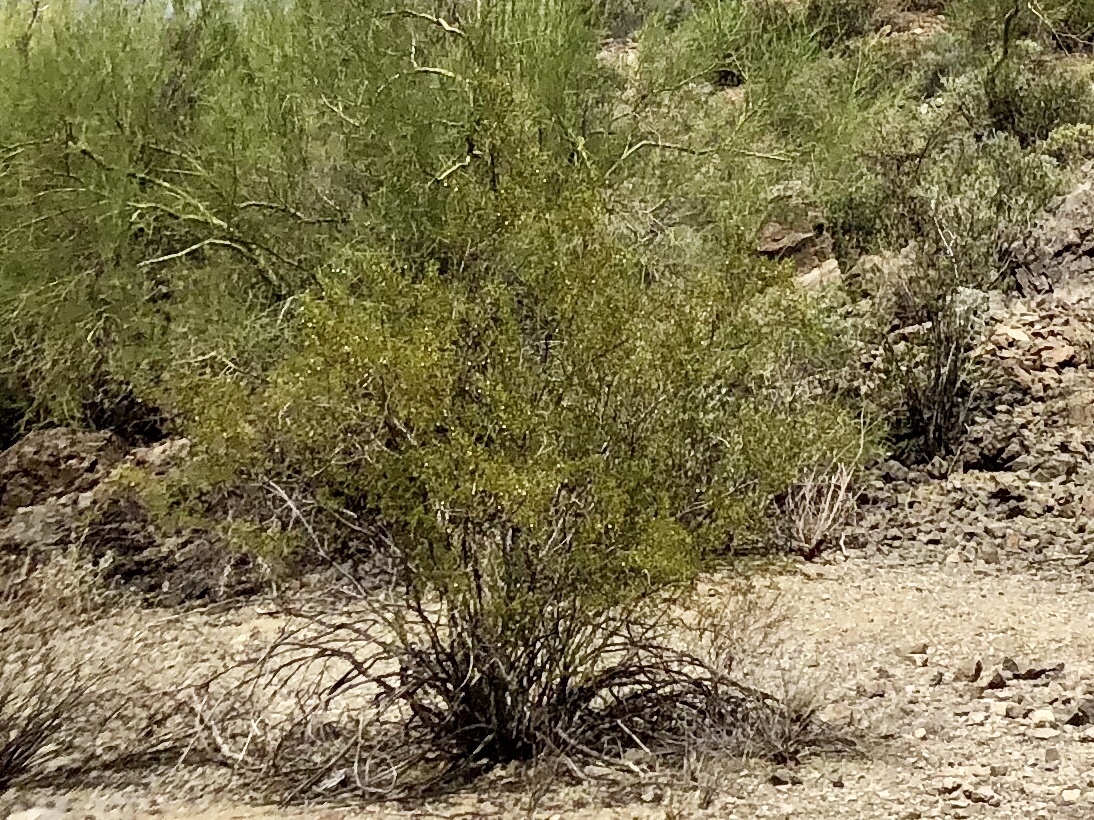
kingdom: Plantae
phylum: Tracheophyta
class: Magnoliopsida
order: Zygophyllales
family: Zygophyllaceae
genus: Larrea
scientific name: Larrea tridentata
